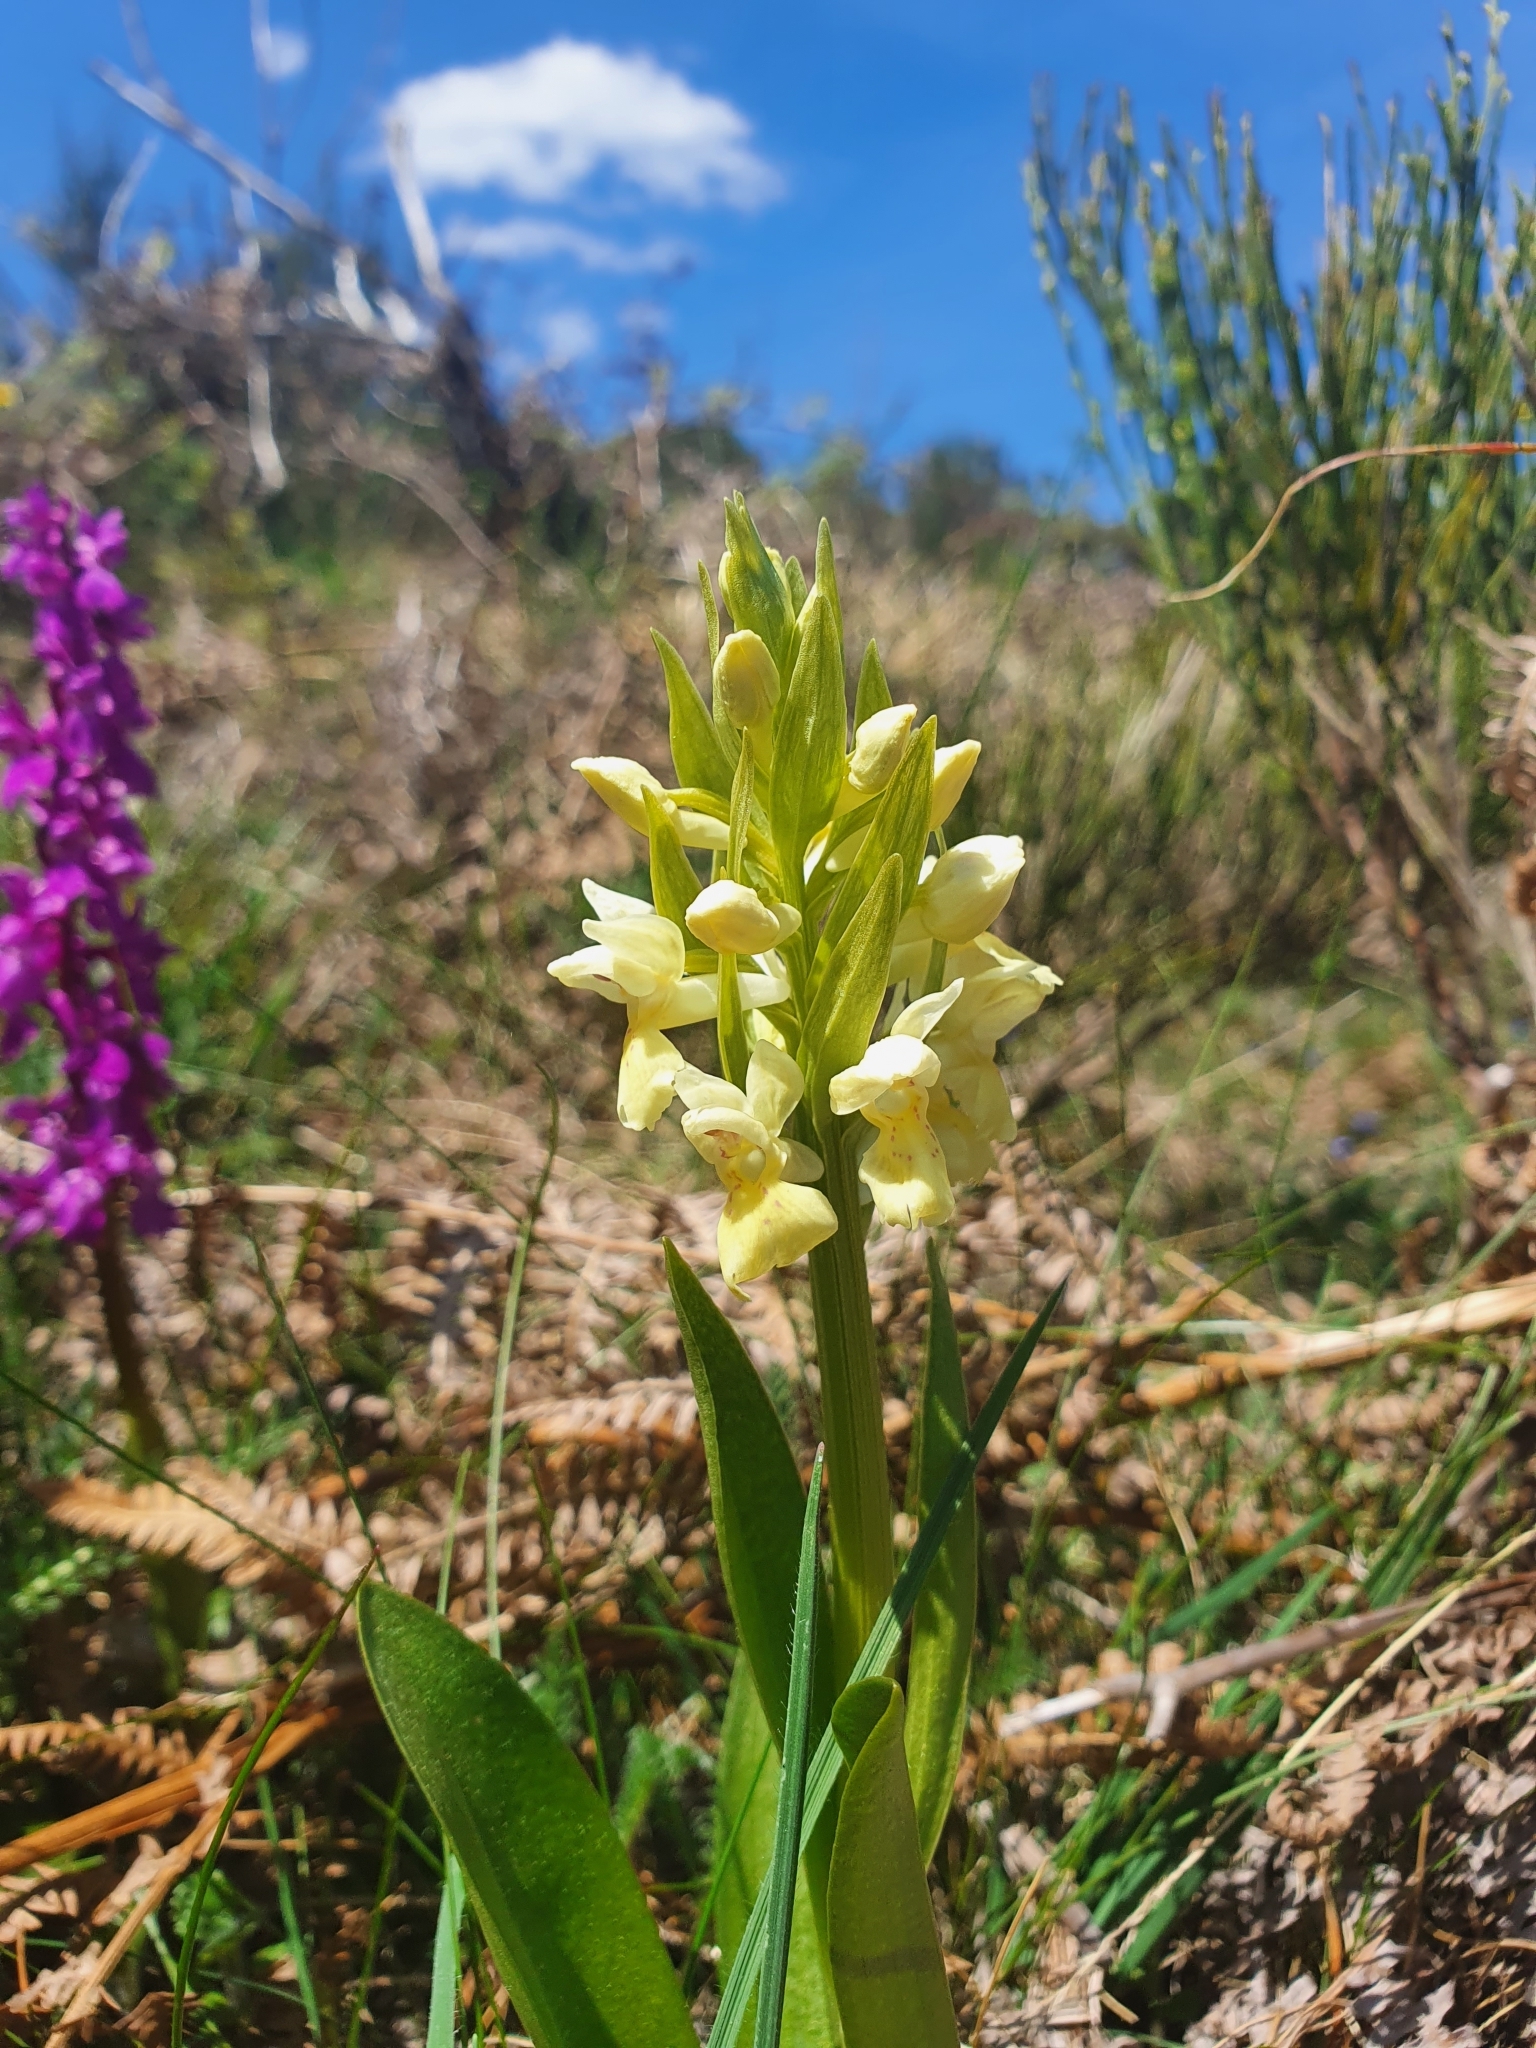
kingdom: Plantae
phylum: Tracheophyta
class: Liliopsida
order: Asparagales
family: Orchidaceae
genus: Dactylorhiza
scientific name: Dactylorhiza cantabrica
